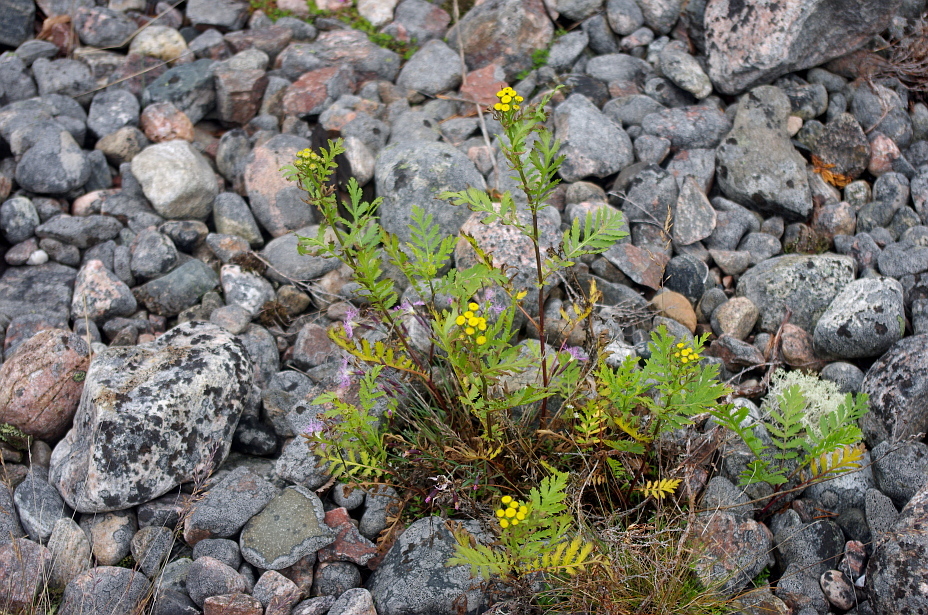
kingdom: Plantae
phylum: Tracheophyta
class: Magnoliopsida
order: Asterales
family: Asteraceae
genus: Tanacetum
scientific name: Tanacetum vulgare
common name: Common tansy
